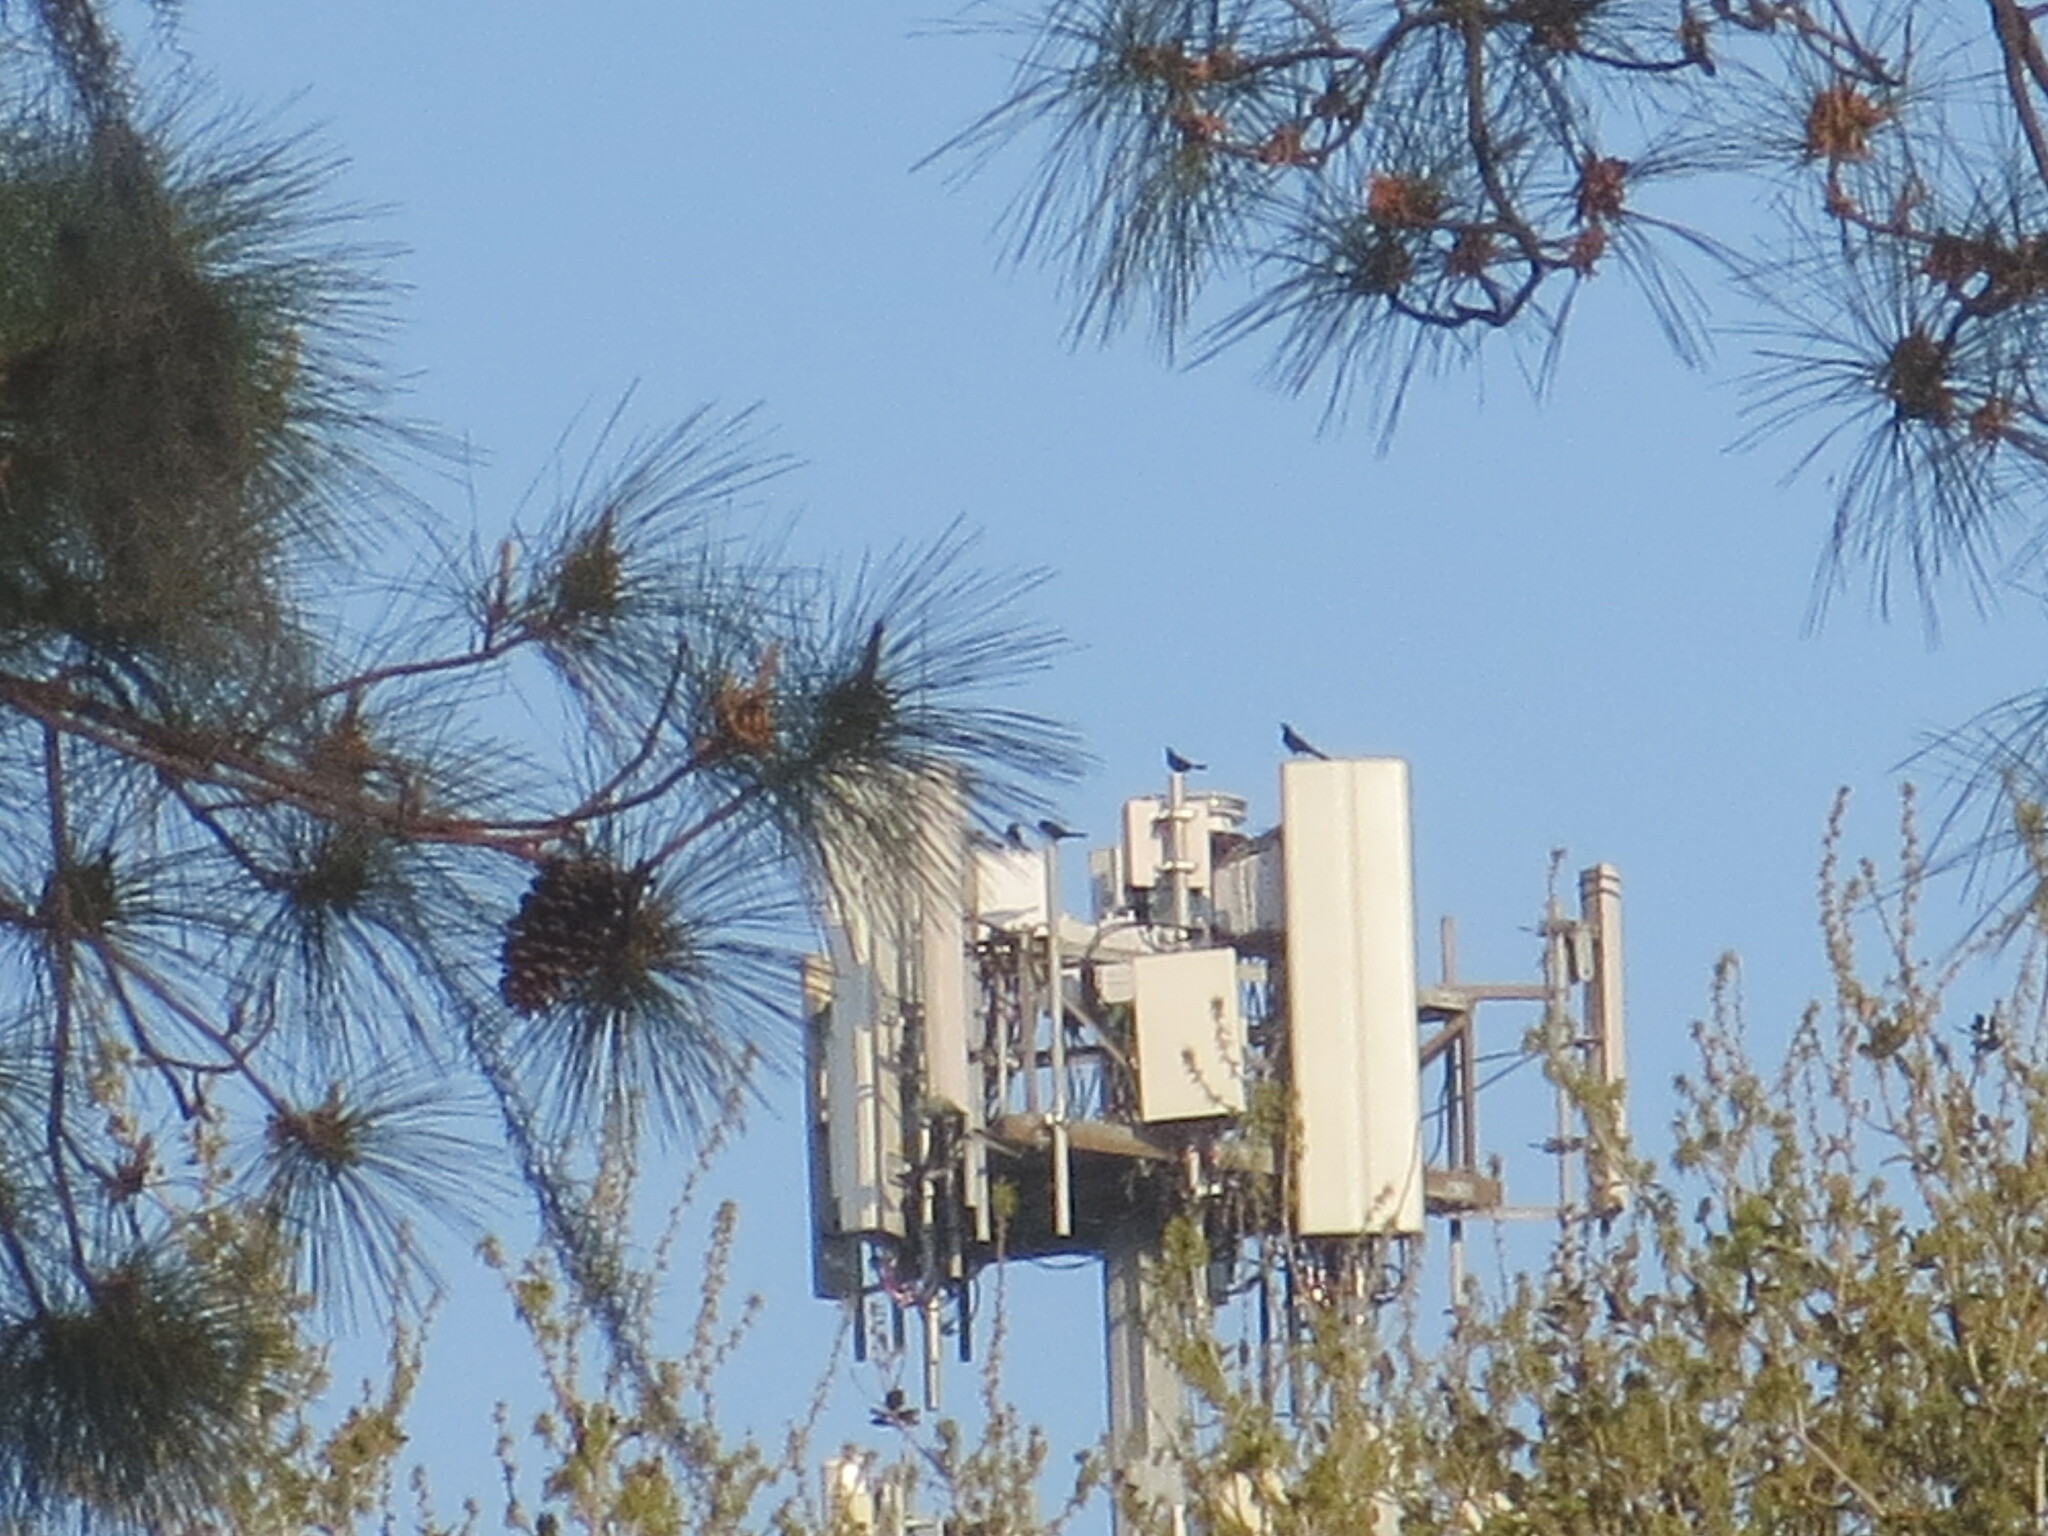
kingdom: Animalia
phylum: Chordata
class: Aves
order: Passeriformes
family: Icteridae
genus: Quiscalus
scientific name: Quiscalus major
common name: Boat-tailed grackle
